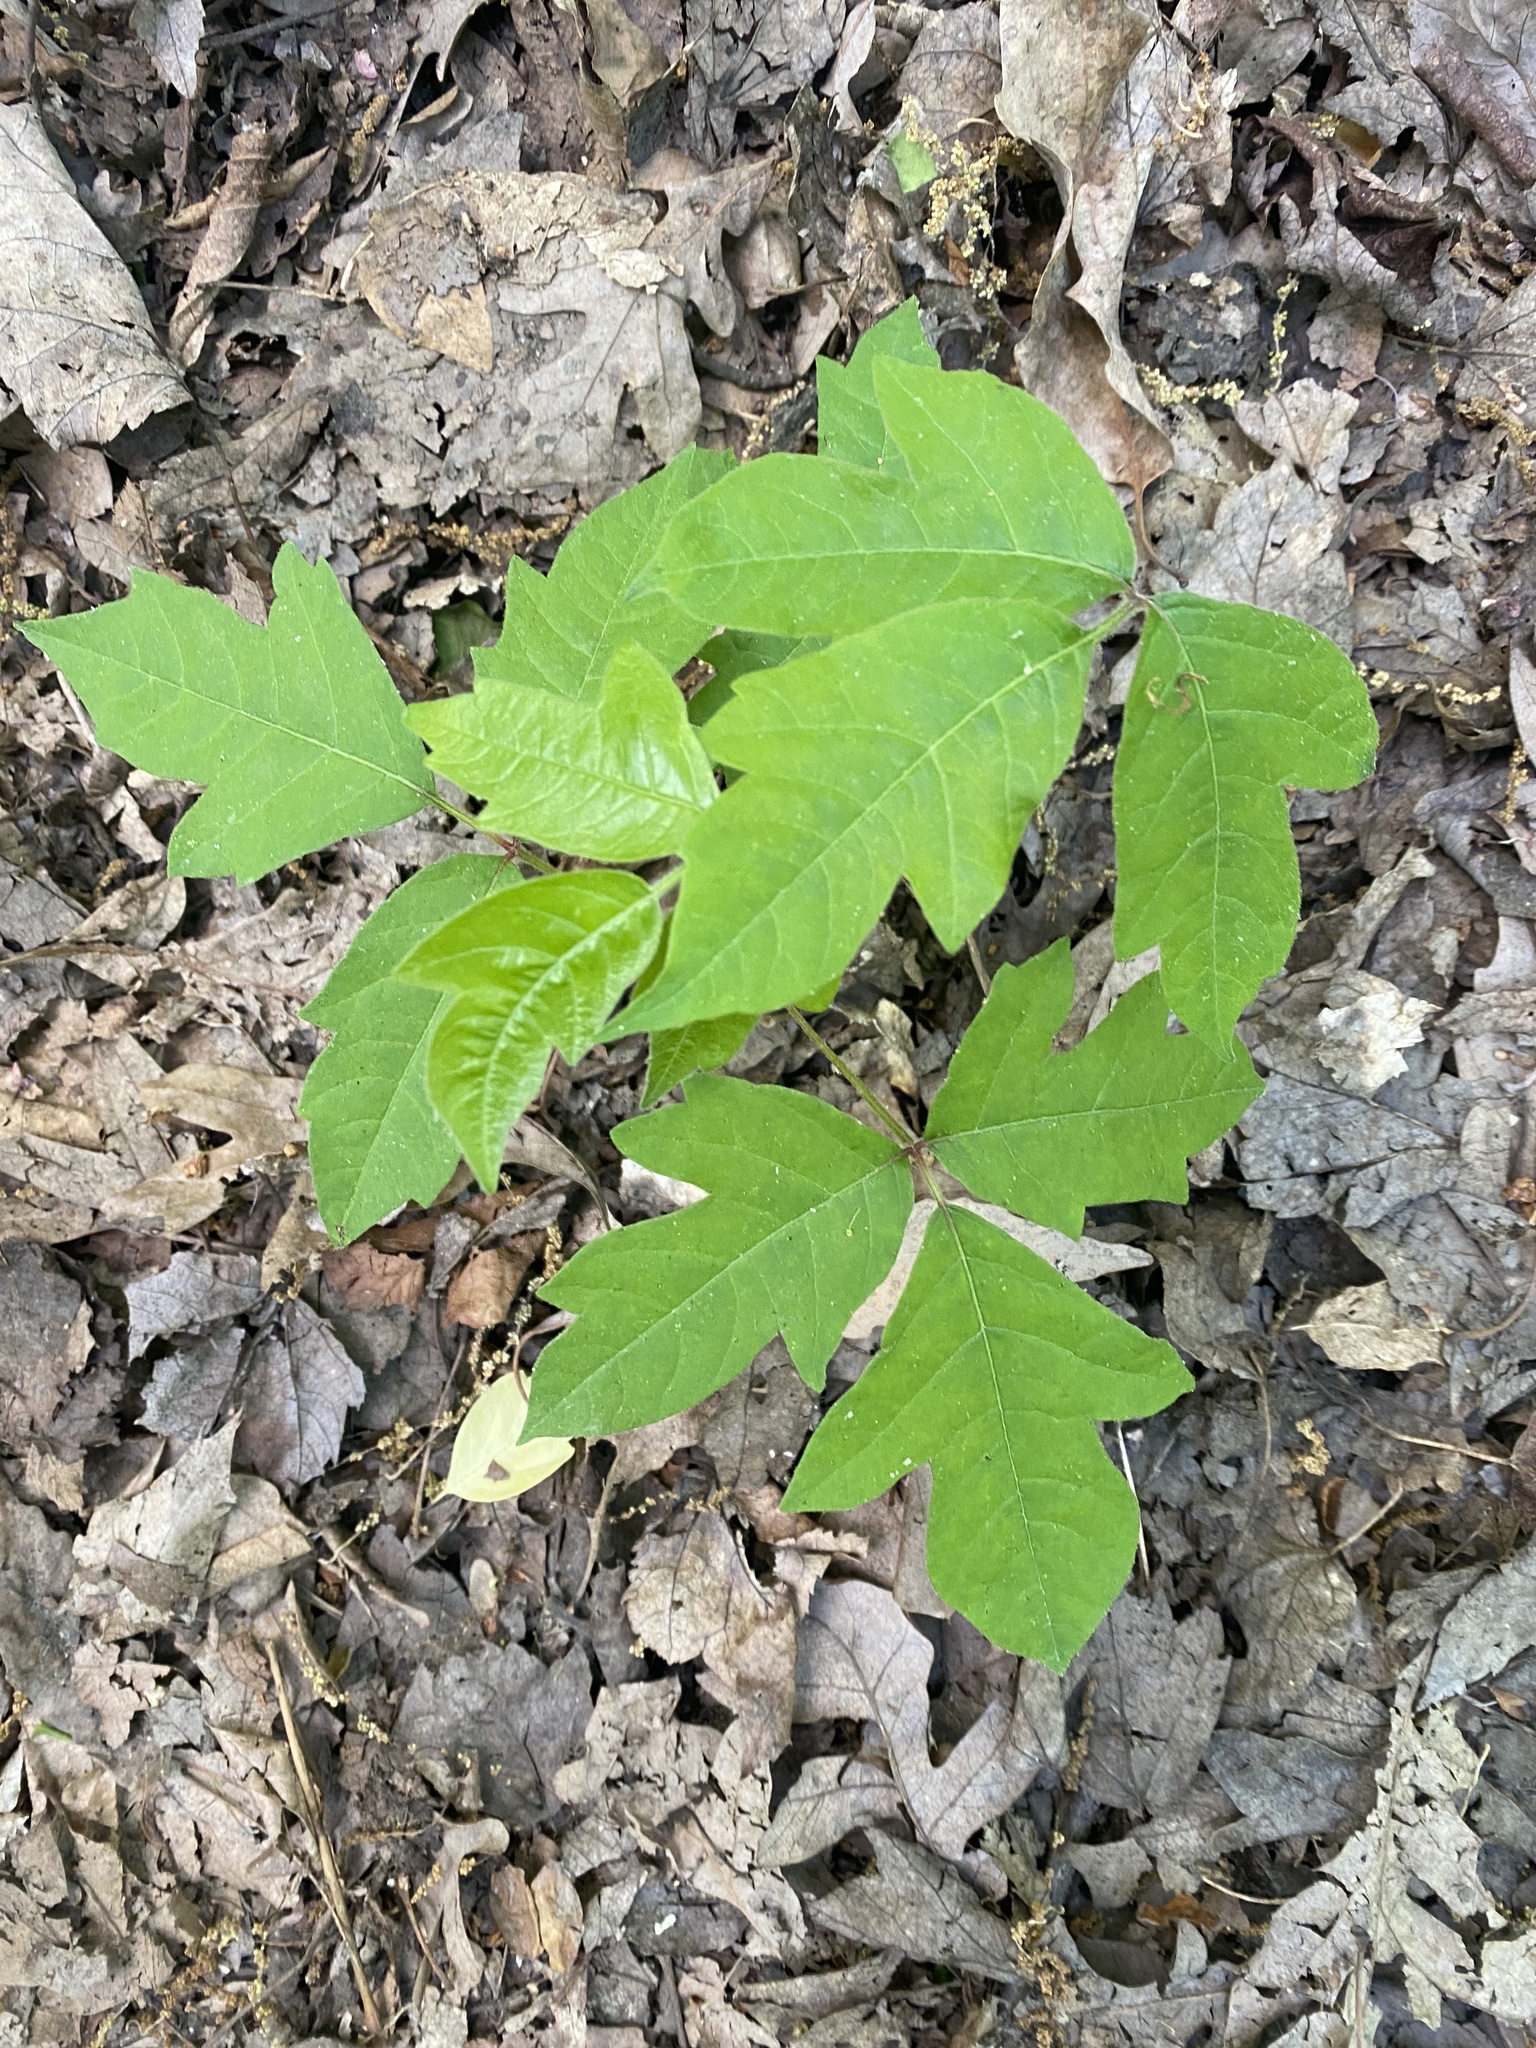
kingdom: Plantae
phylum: Tracheophyta
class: Magnoliopsida
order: Sapindales
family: Anacardiaceae
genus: Toxicodendron
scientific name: Toxicodendron radicans
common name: Poison ivy
